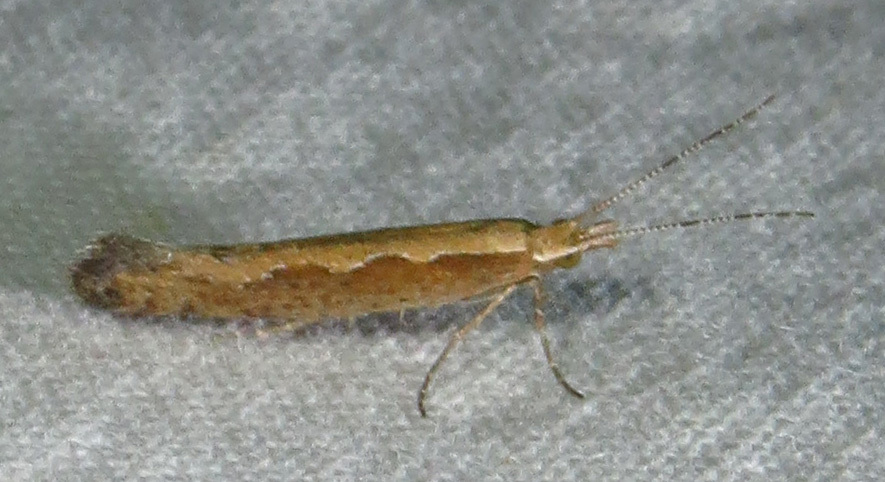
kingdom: Animalia
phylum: Arthropoda
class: Insecta
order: Lepidoptera
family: Plutellidae
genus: Plutella
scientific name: Plutella xylostella
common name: Diamond-back moth
